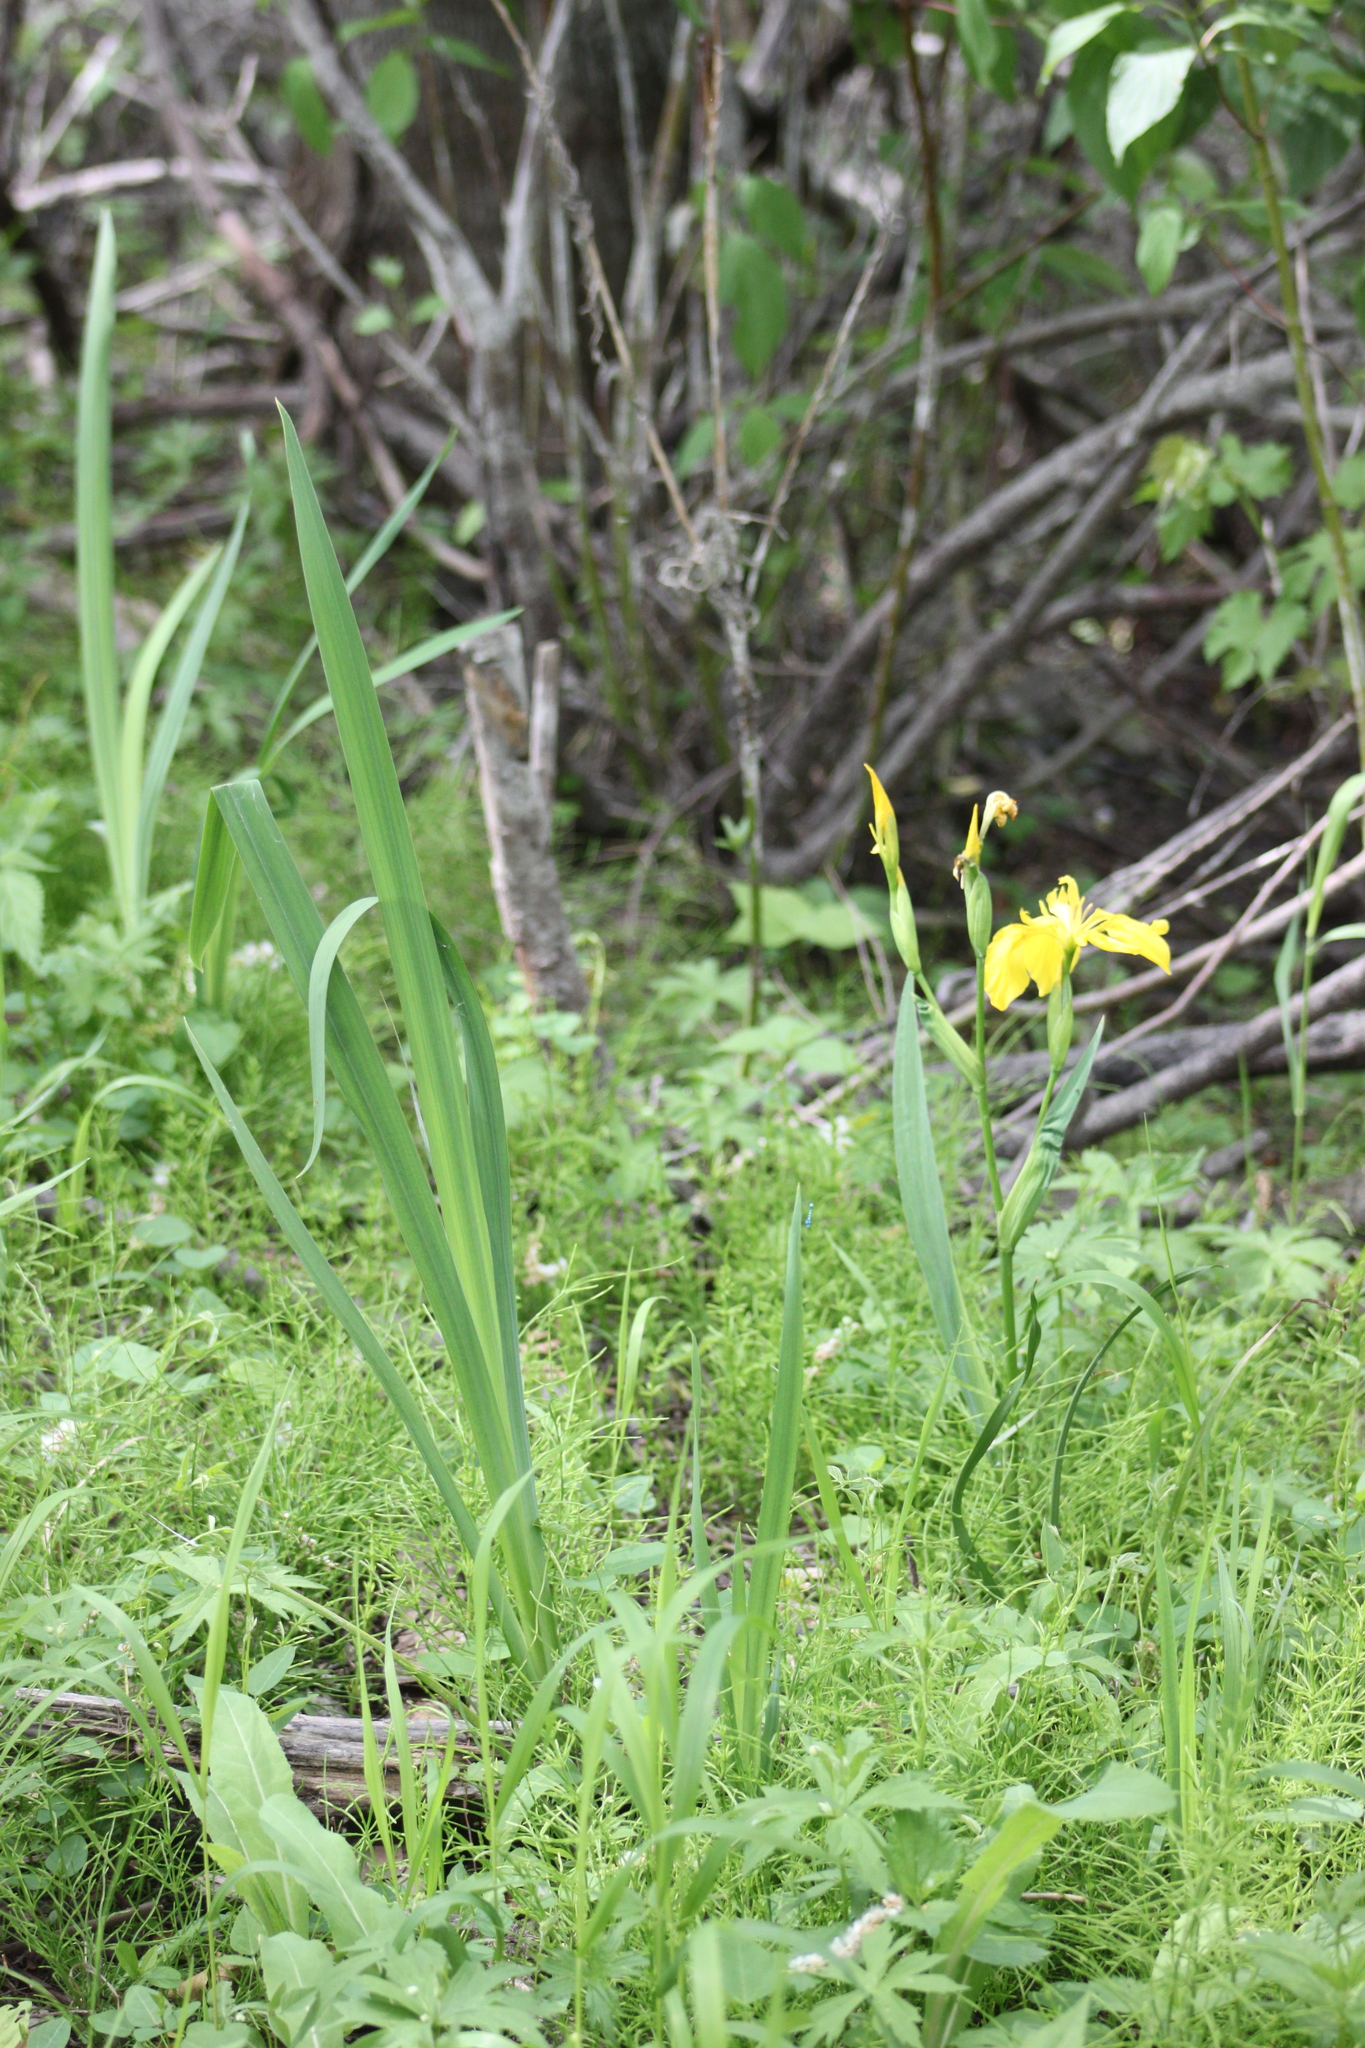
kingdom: Plantae
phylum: Tracheophyta
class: Liliopsida
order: Asparagales
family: Iridaceae
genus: Iris
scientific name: Iris pseudacorus
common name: Yellow flag
